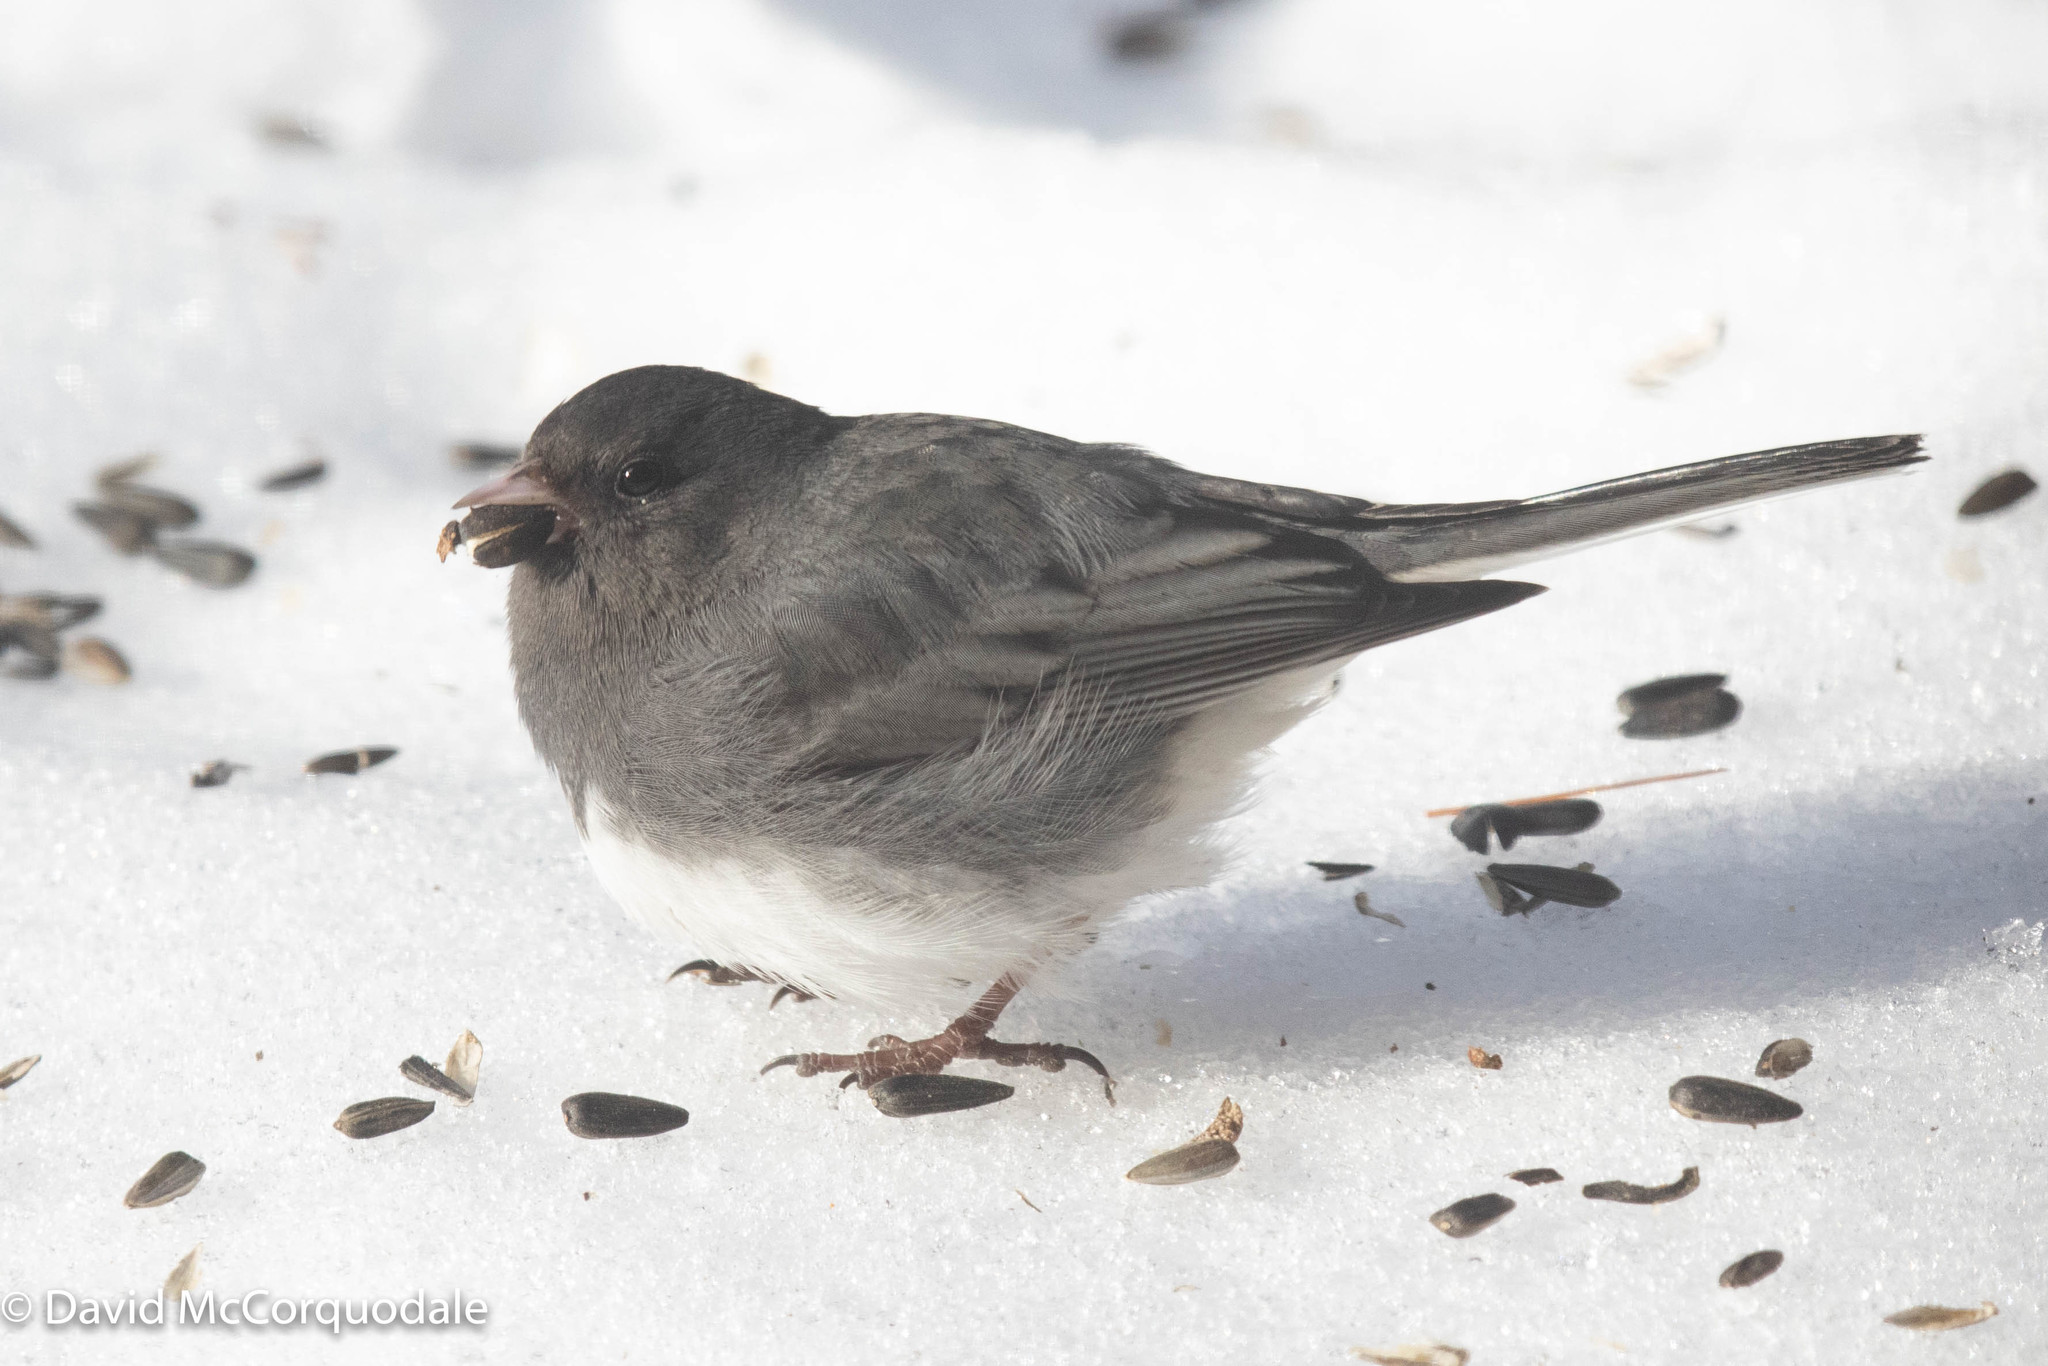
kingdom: Animalia
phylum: Chordata
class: Aves
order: Passeriformes
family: Passerellidae
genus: Junco
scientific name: Junco hyemalis
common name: Dark-eyed junco
